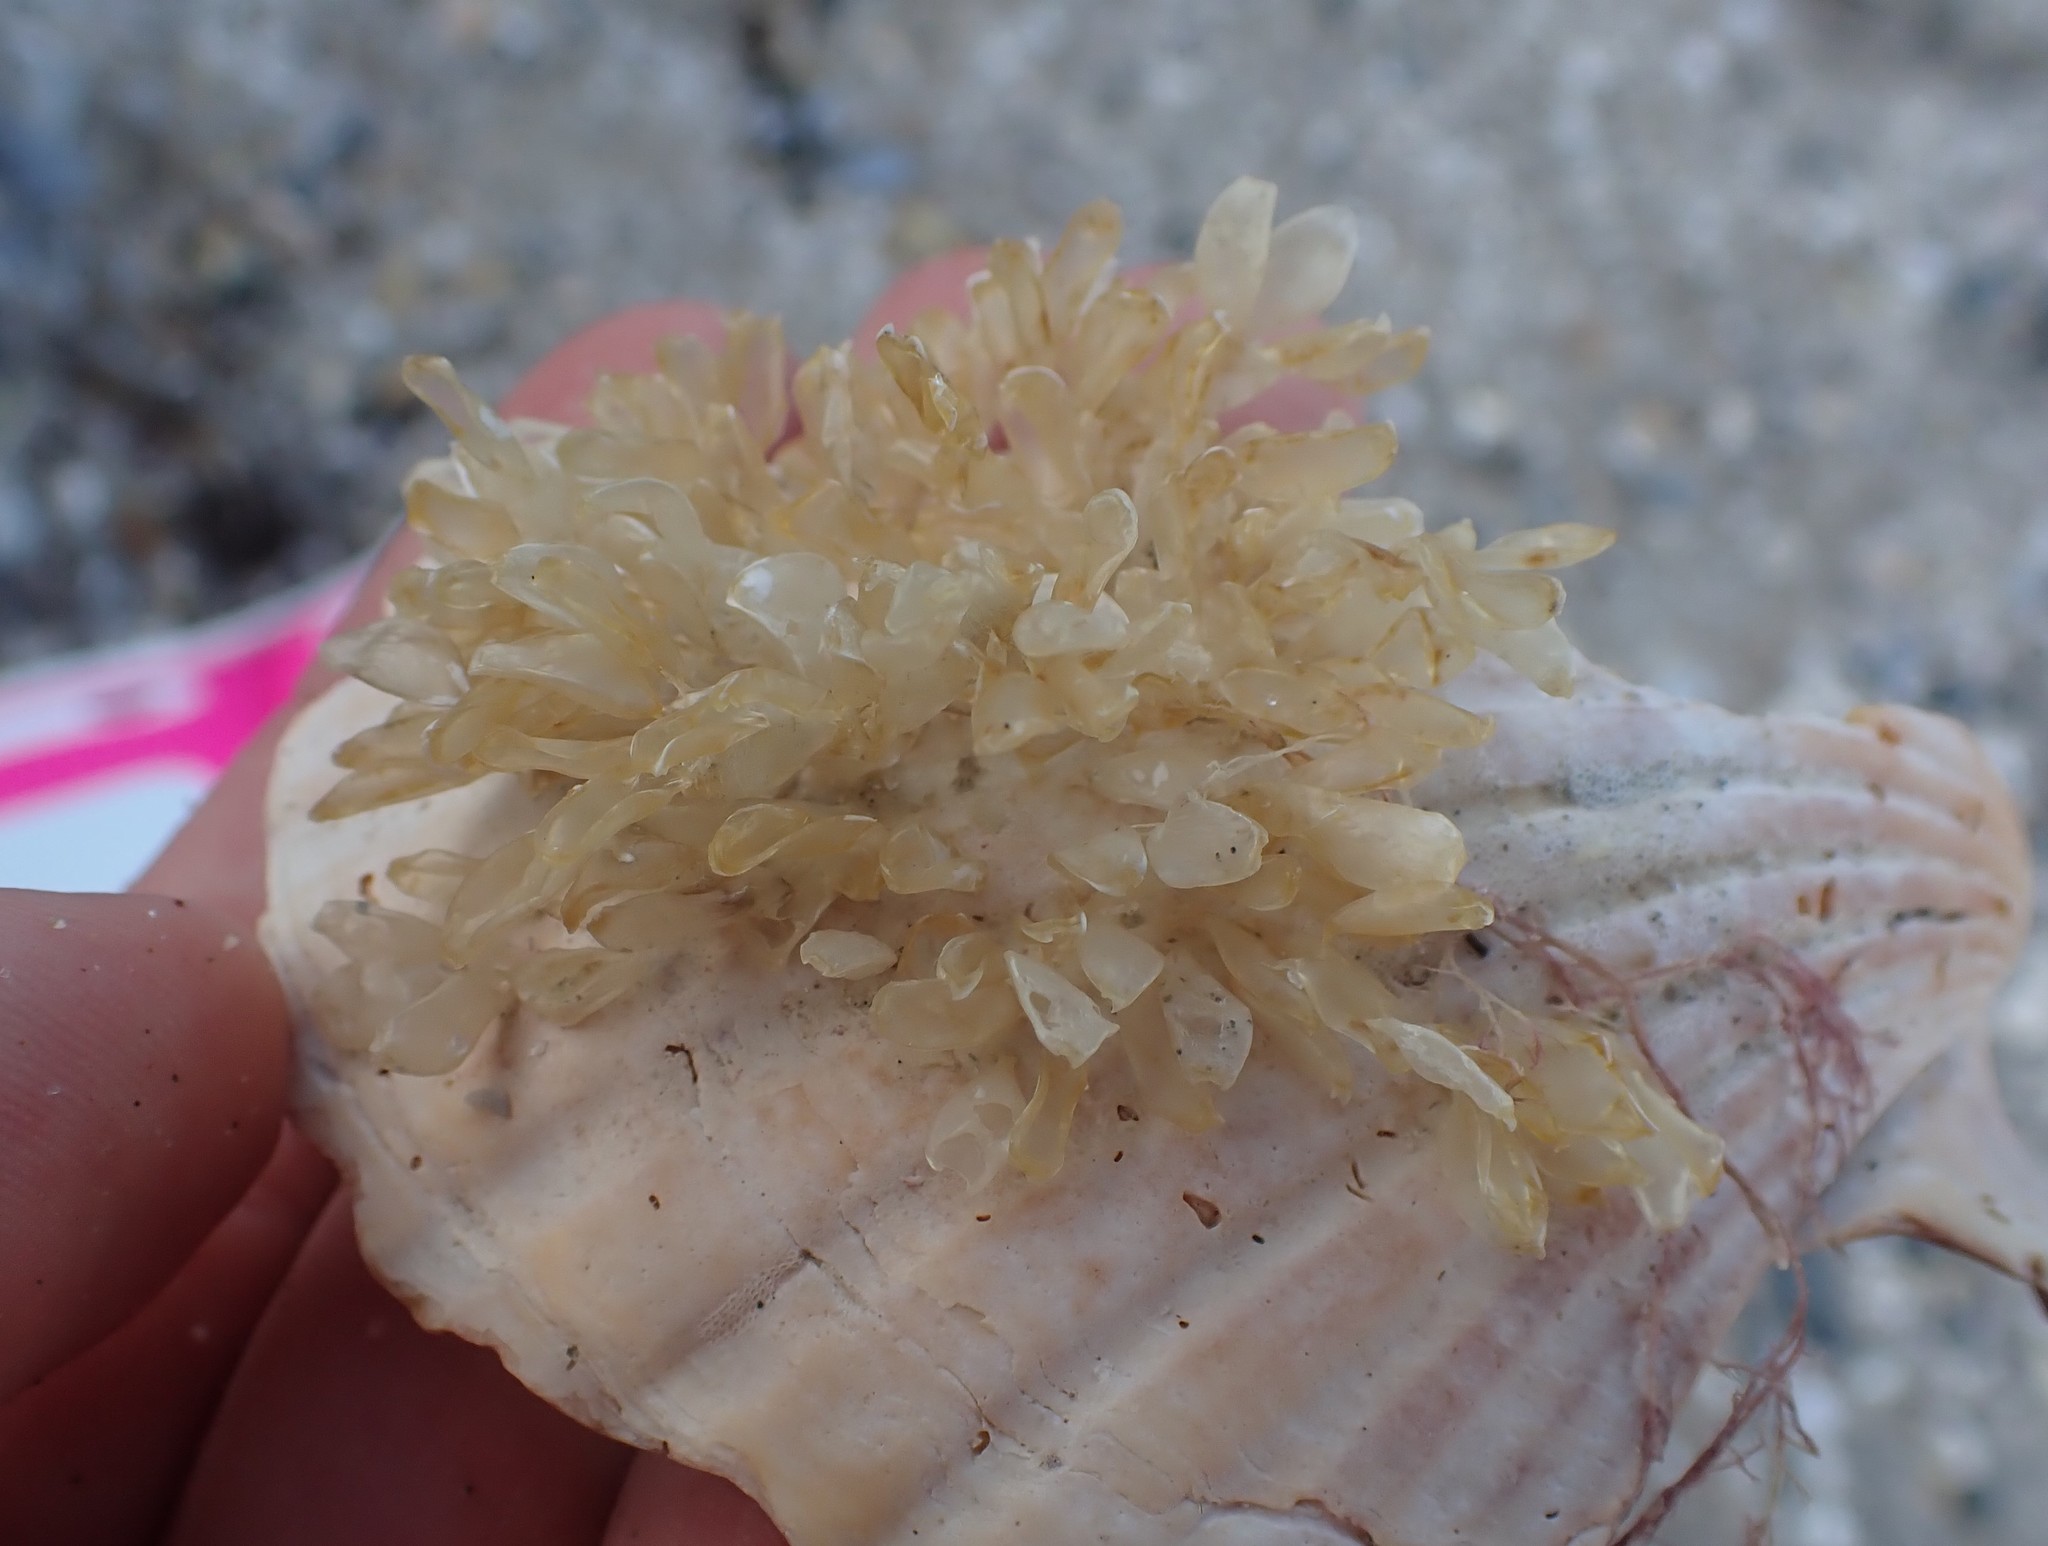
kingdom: Animalia
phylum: Mollusca
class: Gastropoda
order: Neogastropoda
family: Cominellidae
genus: Cominella
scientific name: Cominella adspersa
